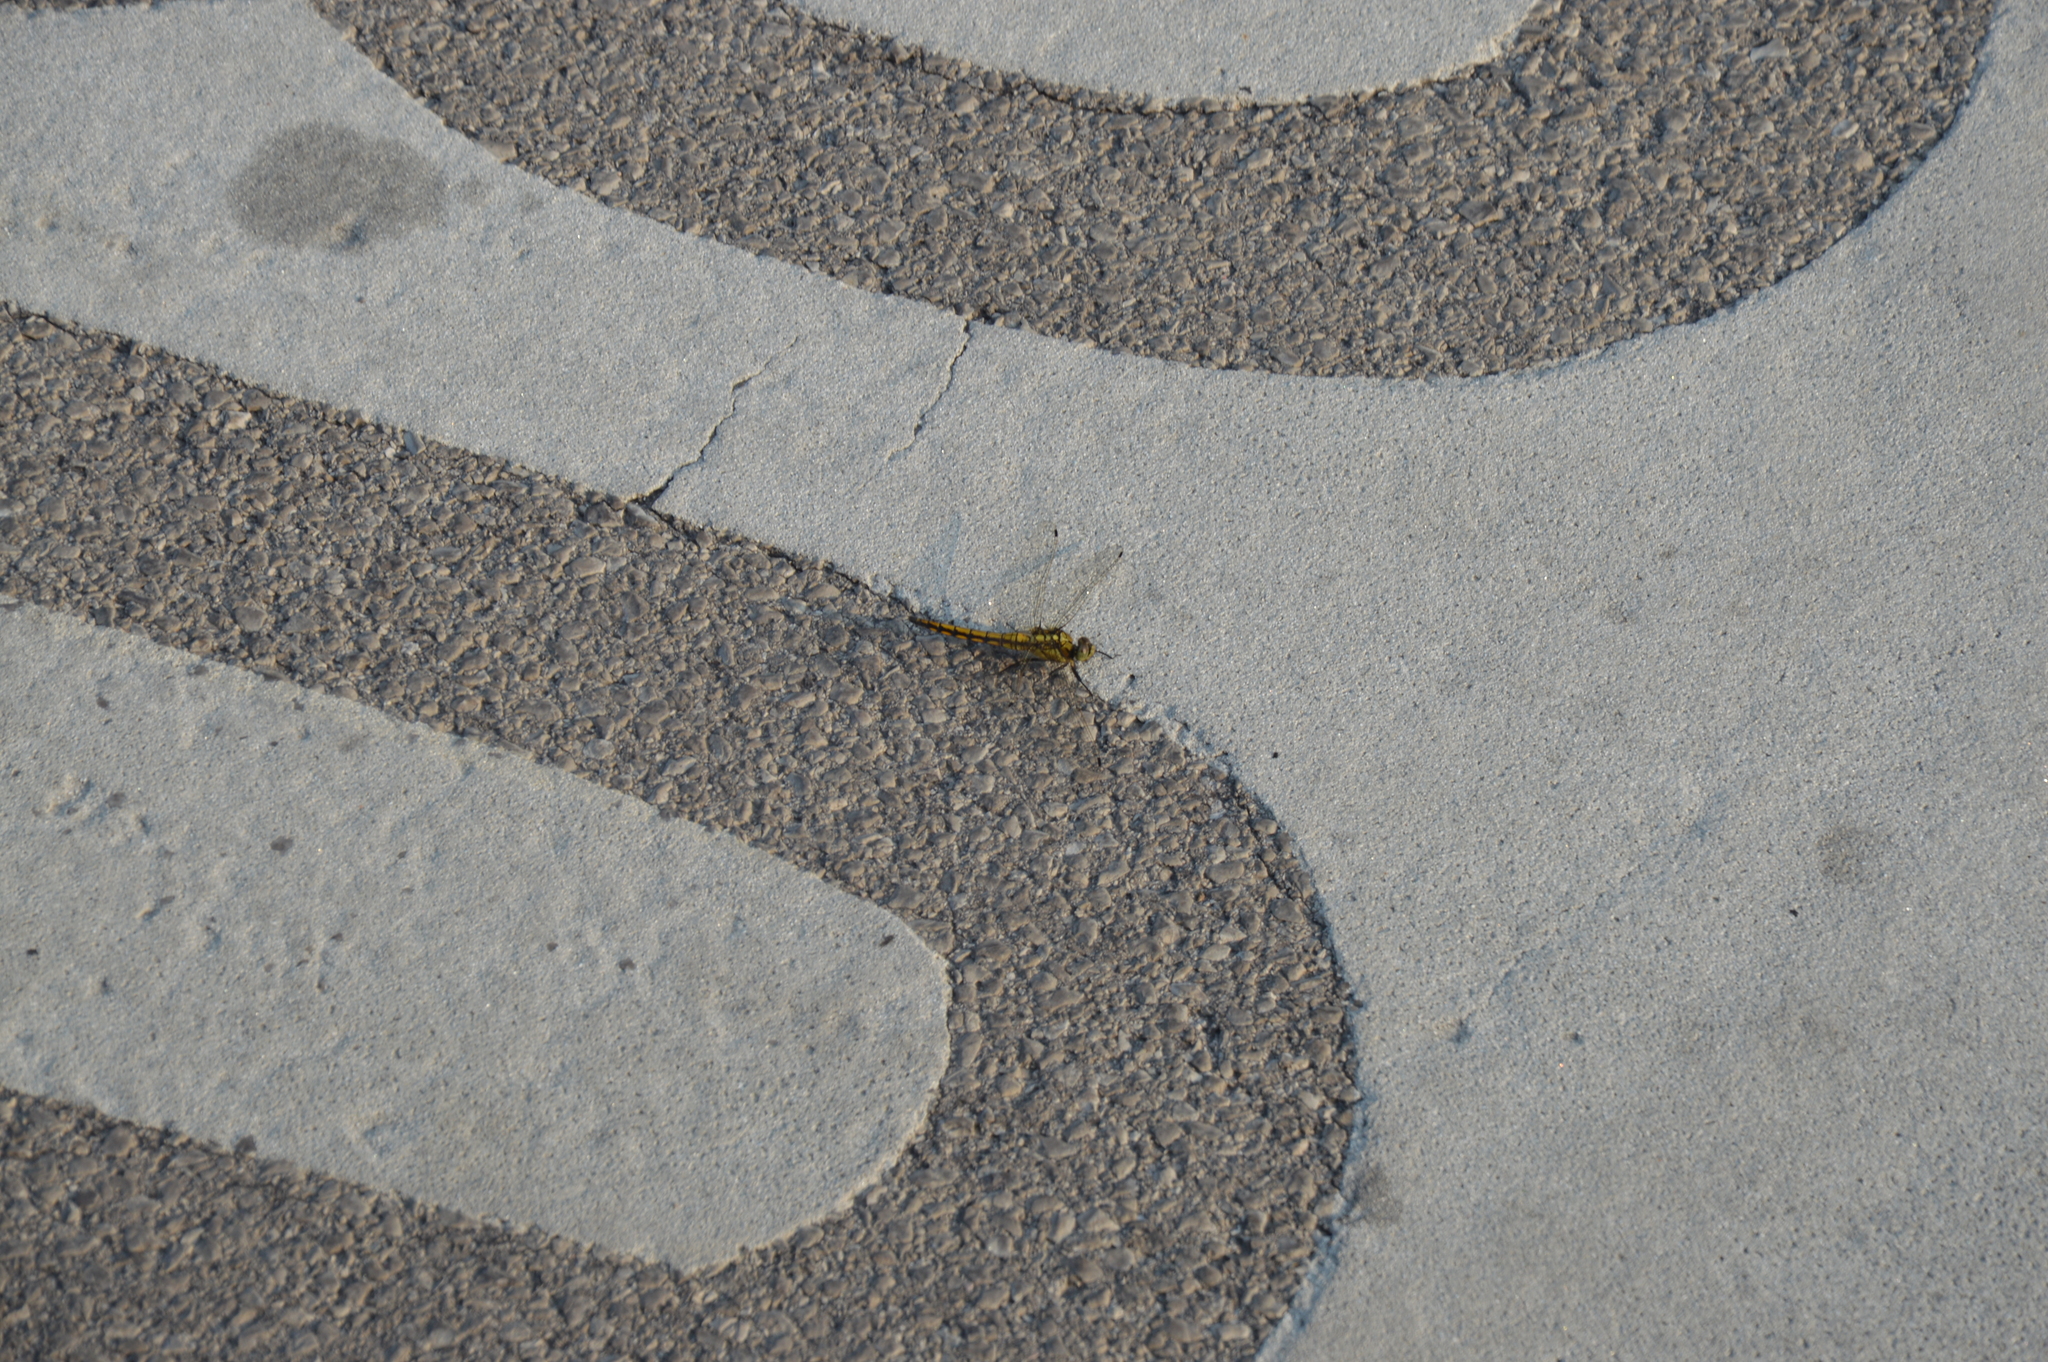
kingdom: Animalia
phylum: Arthropoda
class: Insecta
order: Odonata
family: Libellulidae
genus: Orthetrum
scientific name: Orthetrum cancellatum
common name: Black-tailed skimmer
